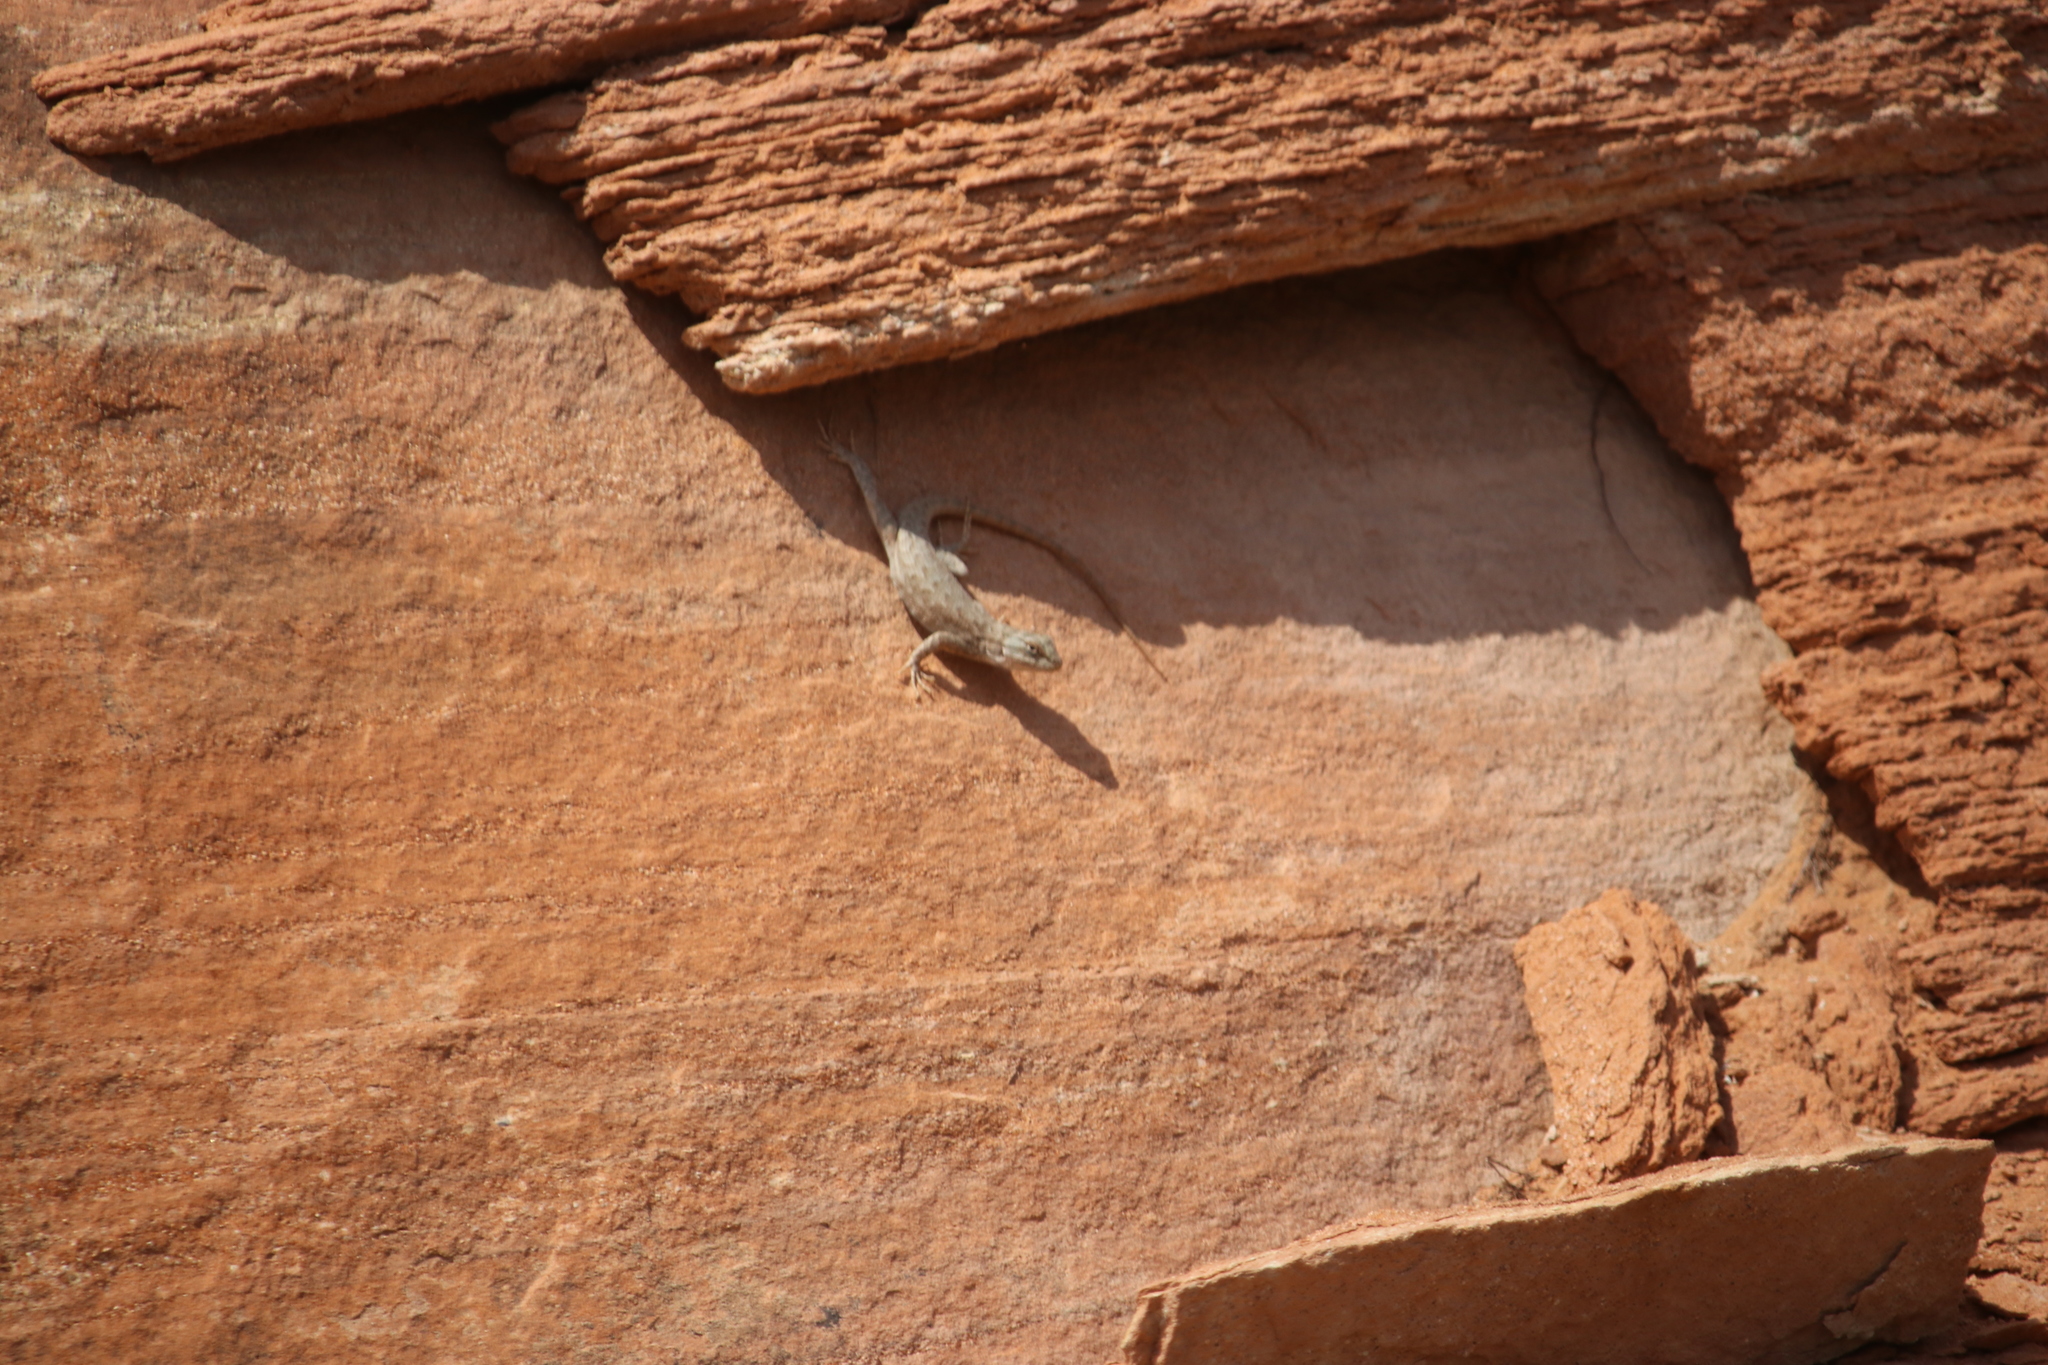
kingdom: Animalia
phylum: Chordata
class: Squamata
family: Phrynosomatidae
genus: Sceloporus
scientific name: Sceloporus tristichus
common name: Plateau fence lizard
